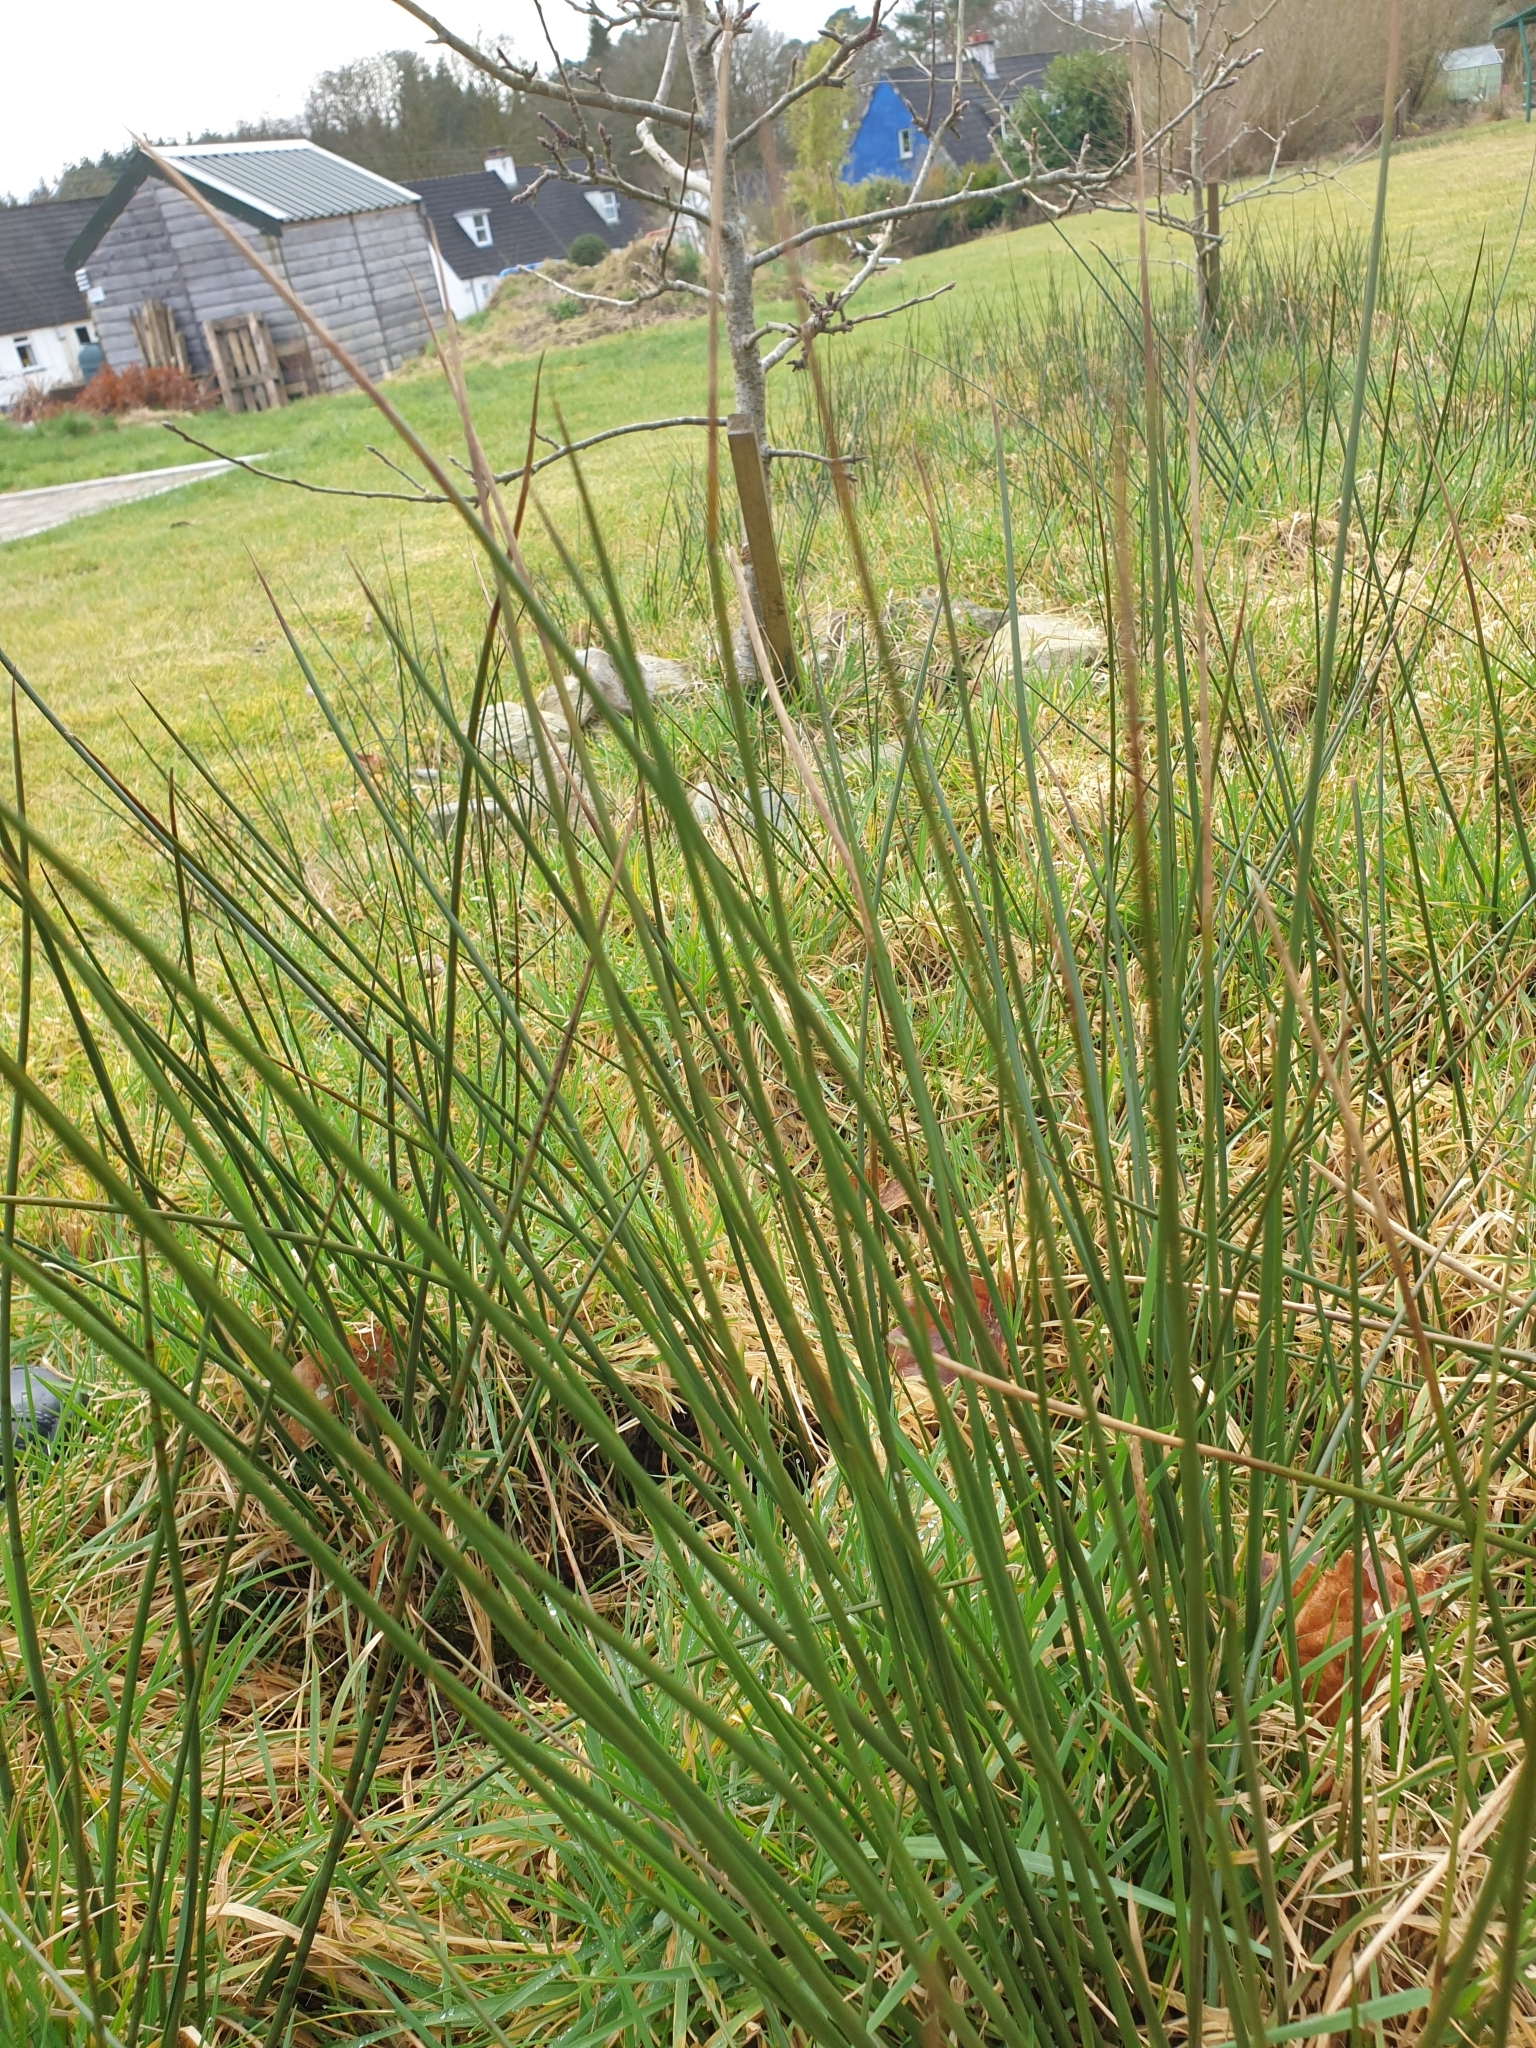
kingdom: Plantae
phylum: Tracheophyta
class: Liliopsida
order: Poales
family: Juncaceae
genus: Juncus
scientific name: Juncus effusus
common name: Soft rush
